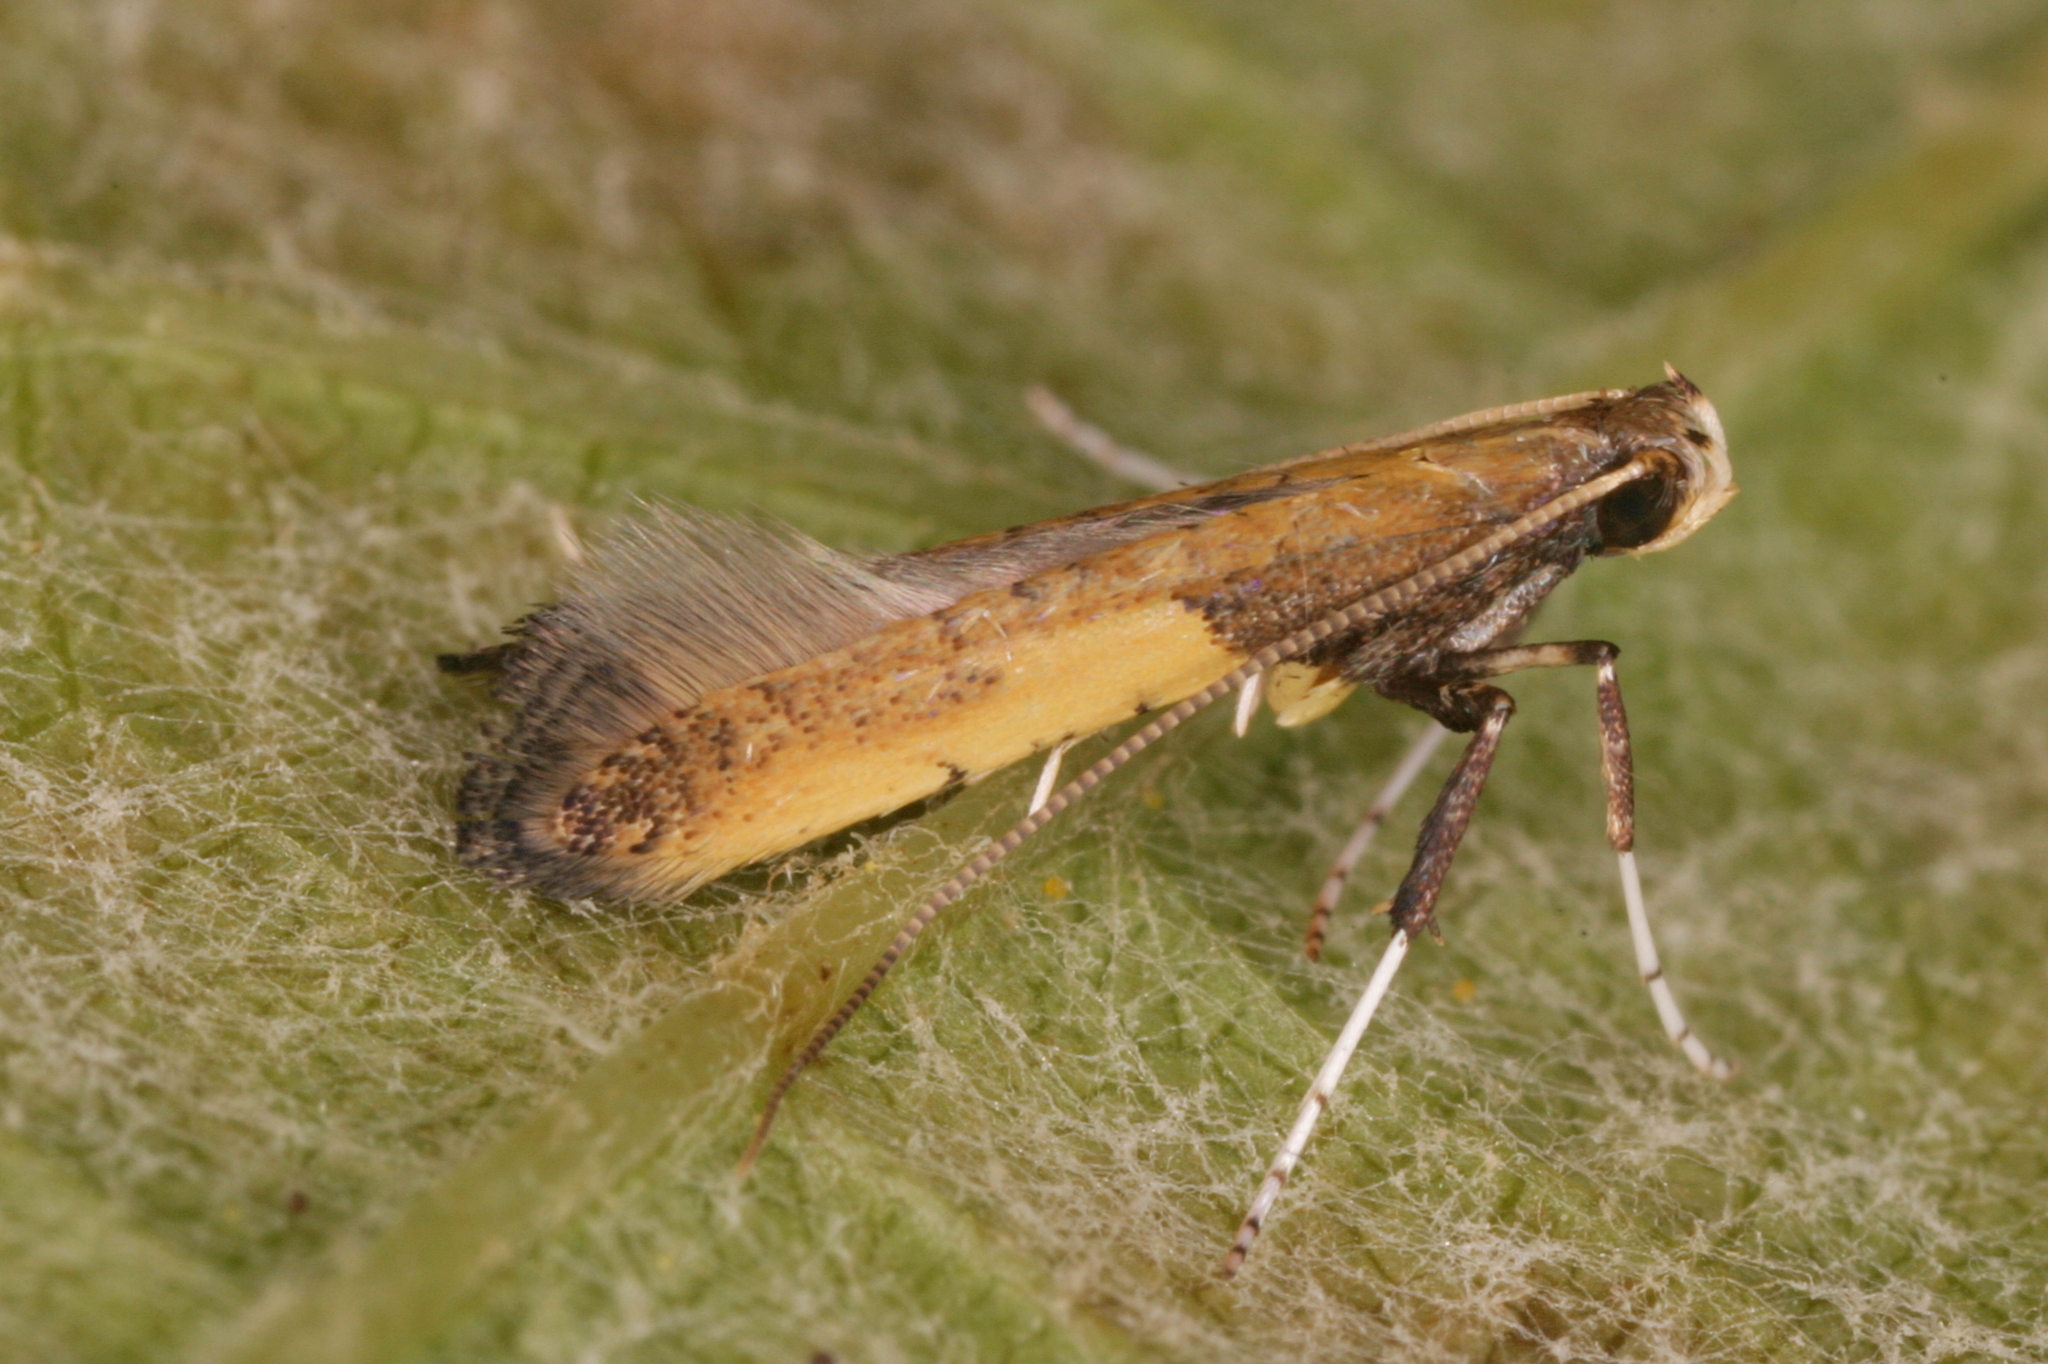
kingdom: Animalia
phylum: Arthropoda
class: Insecta
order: Lepidoptera
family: Gracillariidae
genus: Caloptilia
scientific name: Caloptilia azaleella
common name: Azalea leafminer
